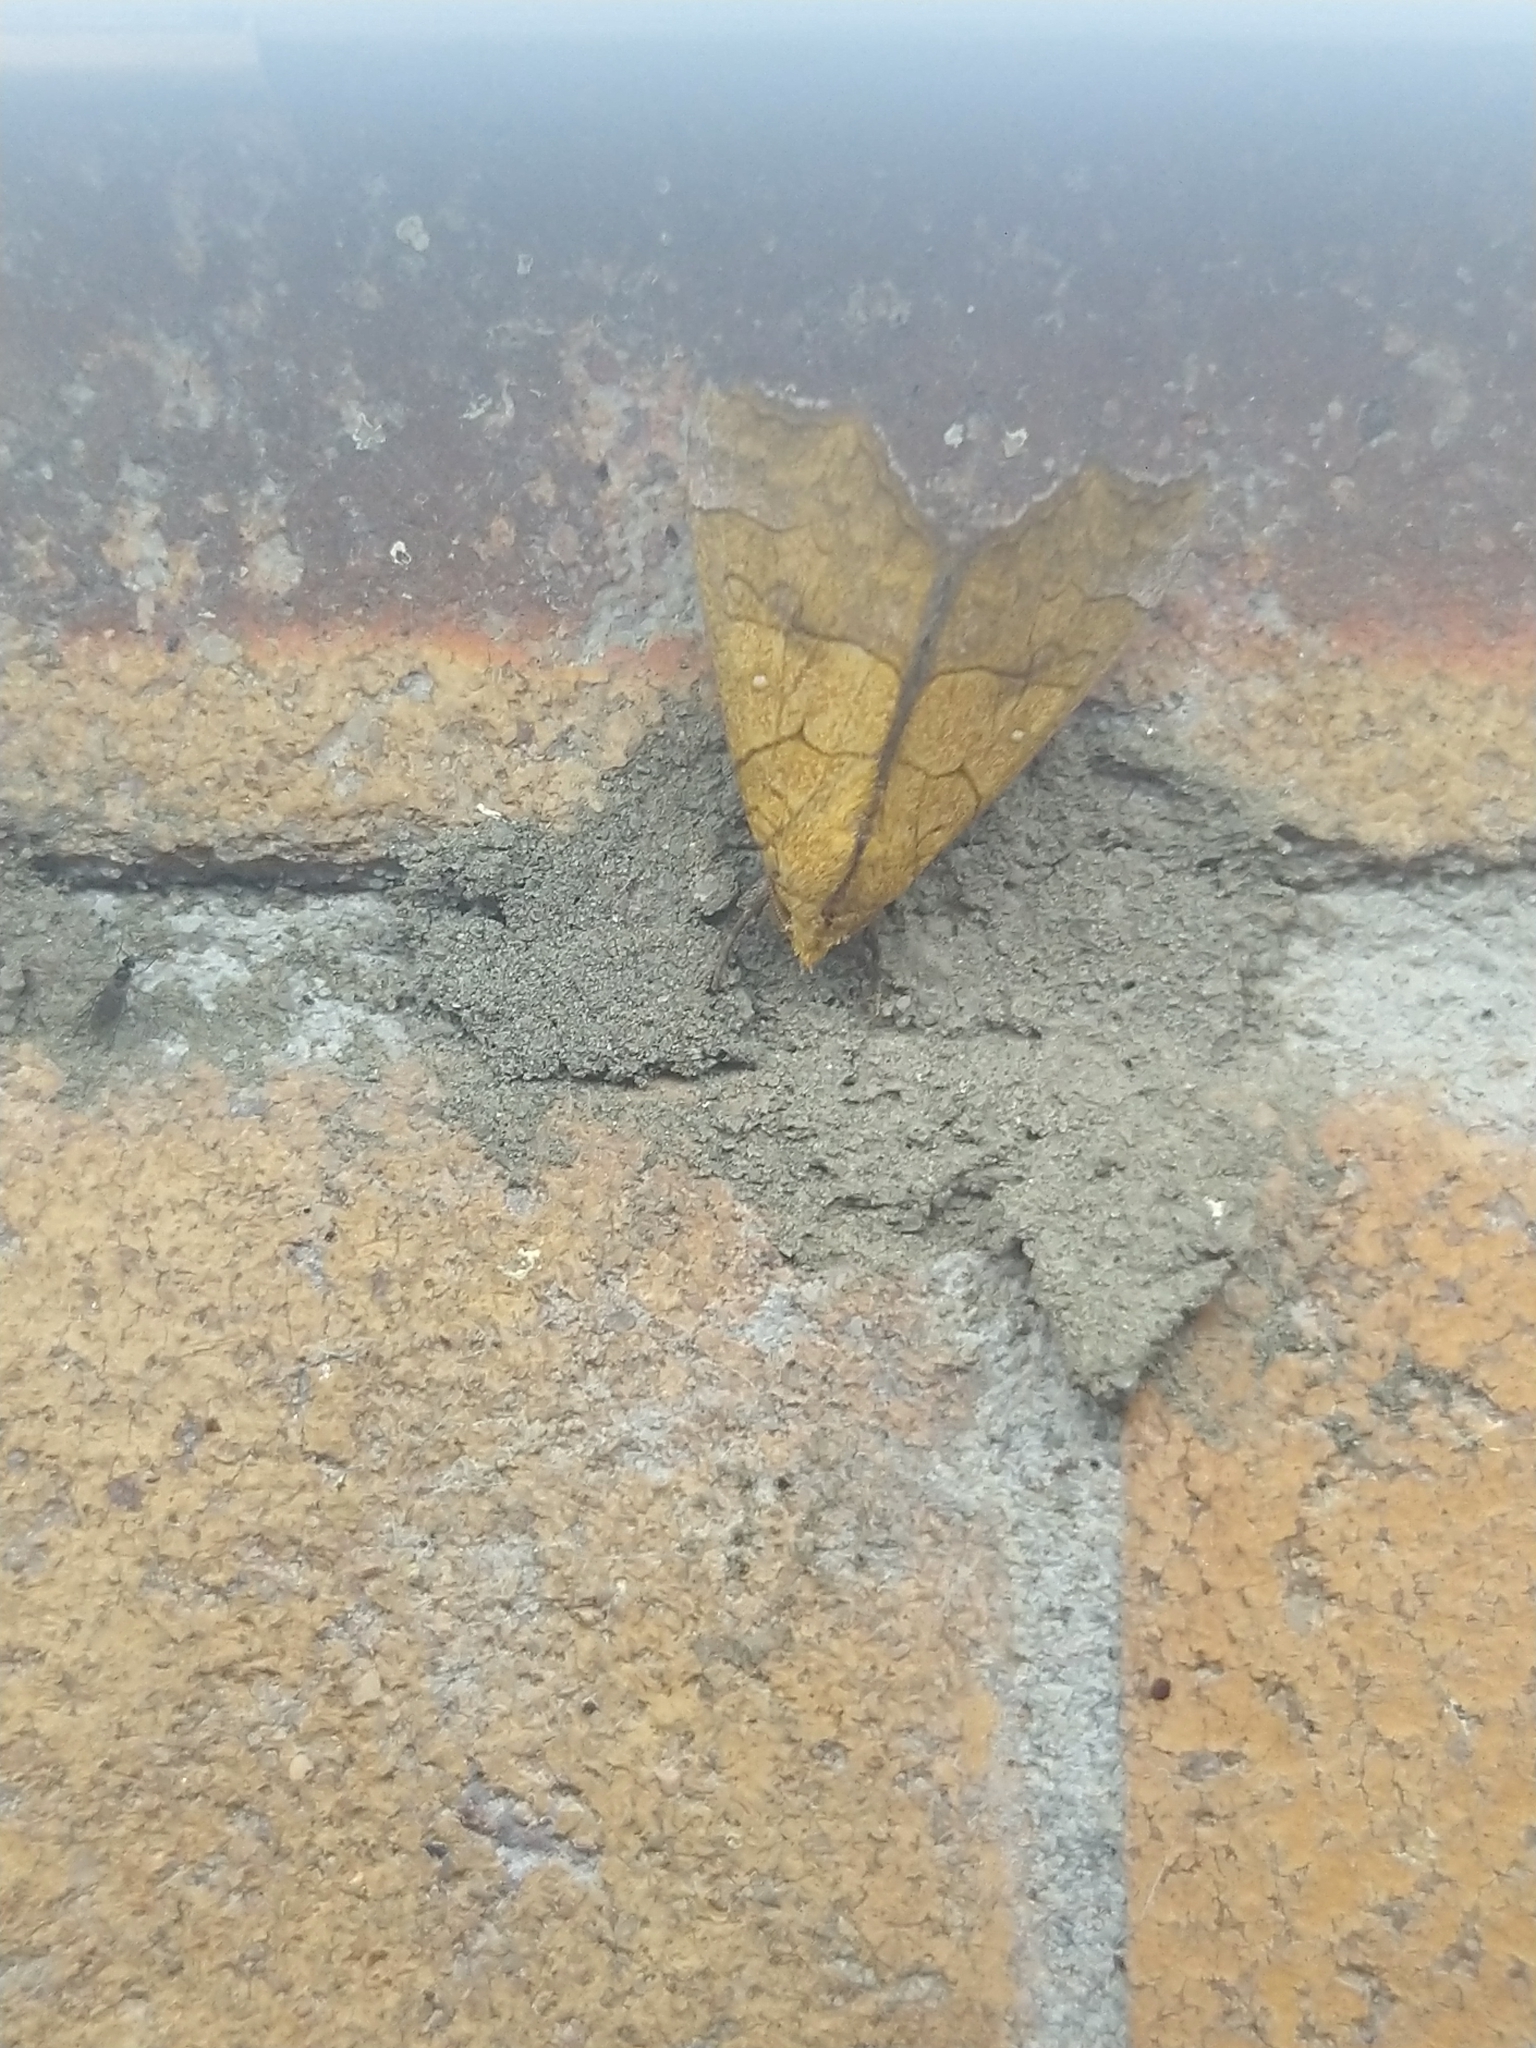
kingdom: Animalia
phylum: Arthropoda
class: Insecta
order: Lepidoptera
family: Erebidae
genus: Anomis
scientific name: Anomis flava
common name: Moth
